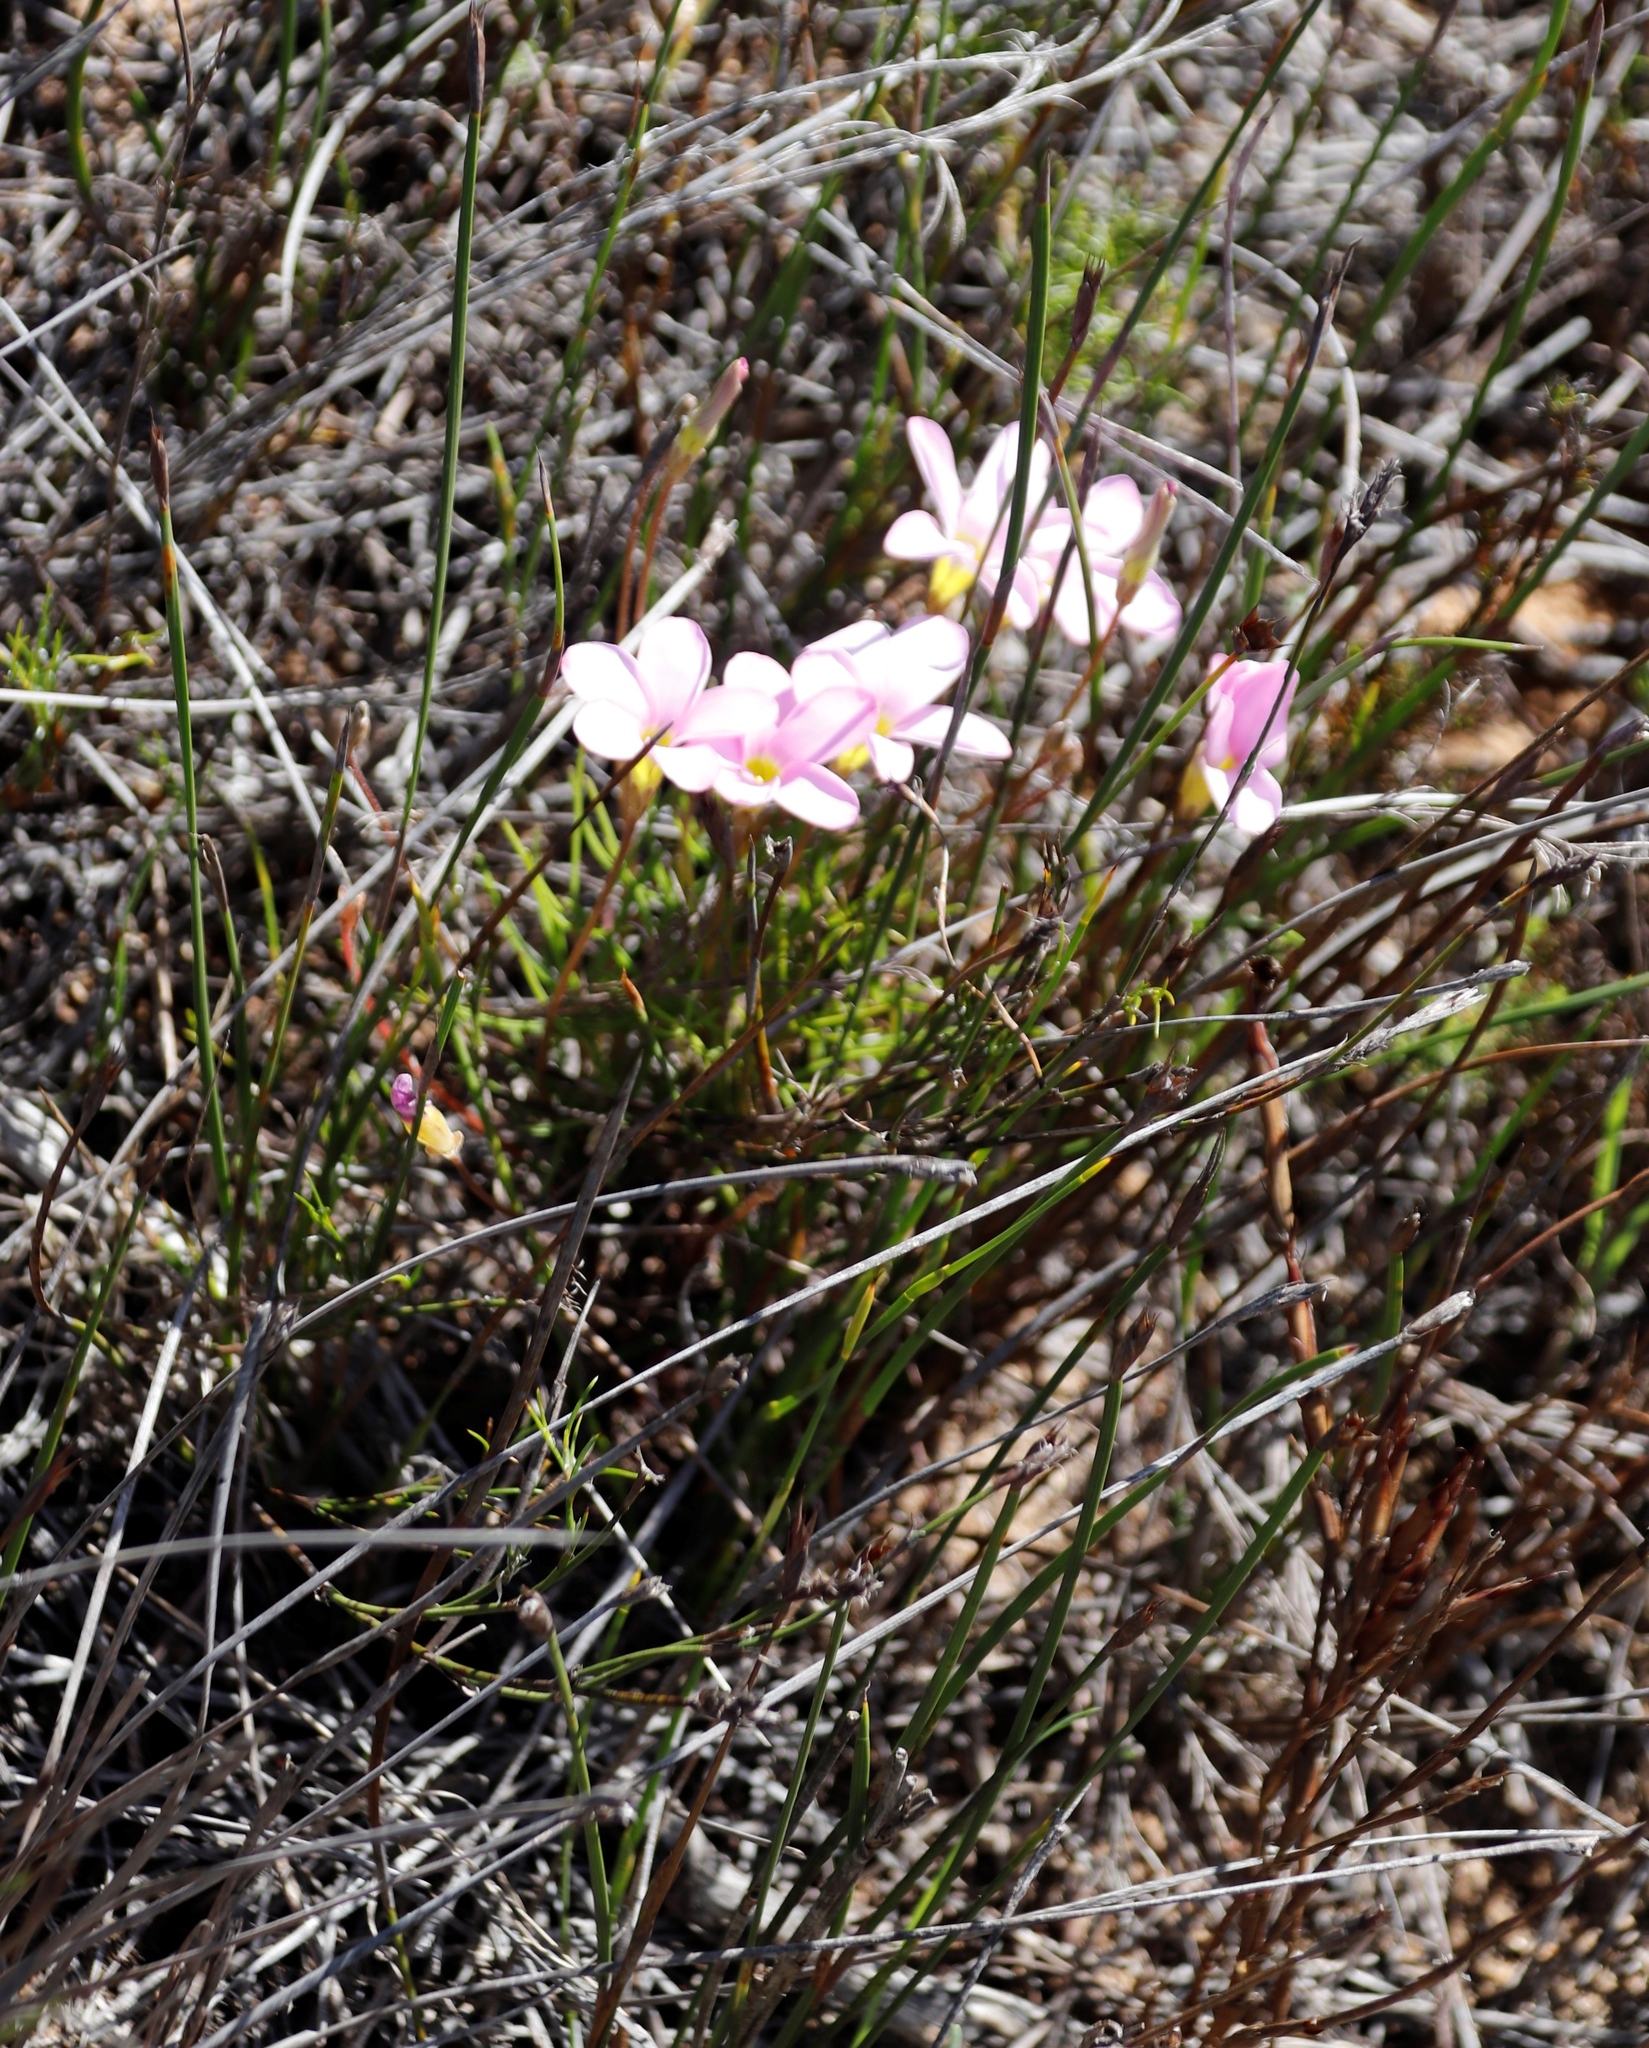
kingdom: Plantae
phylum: Tracheophyta
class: Magnoliopsida
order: Oxalidales
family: Oxalidaceae
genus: Oxalis
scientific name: Oxalis polyphylla
